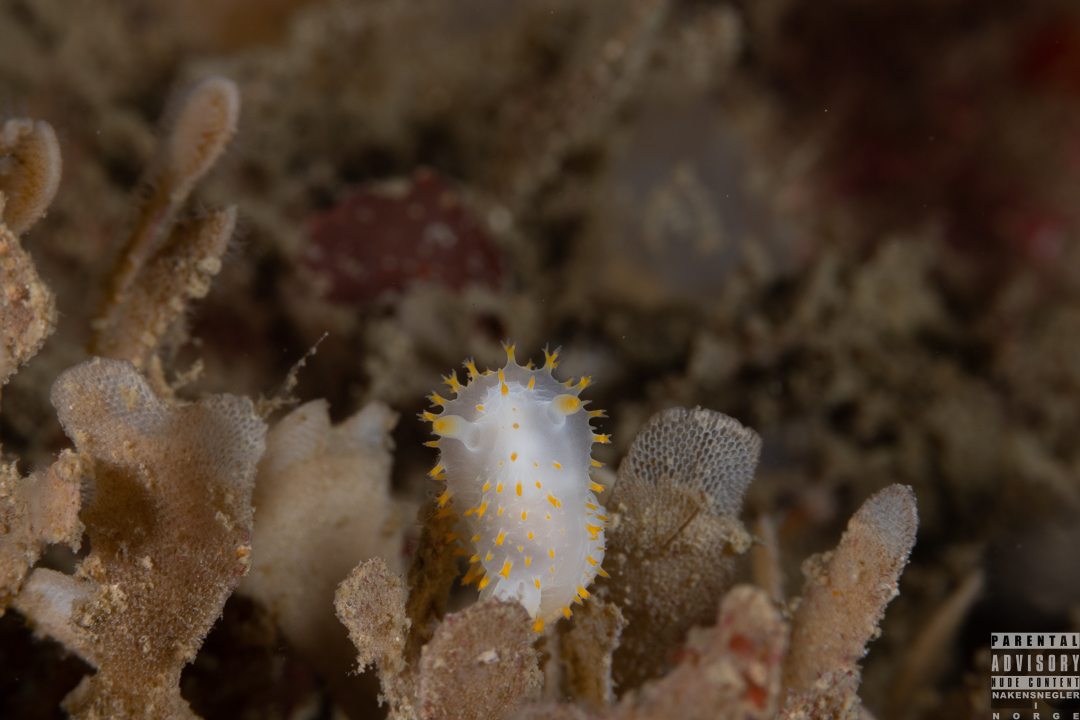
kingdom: Animalia
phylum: Mollusca
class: Gastropoda
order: Nudibranchia
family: Polyceridae
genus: Crimora
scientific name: Crimora papillata
